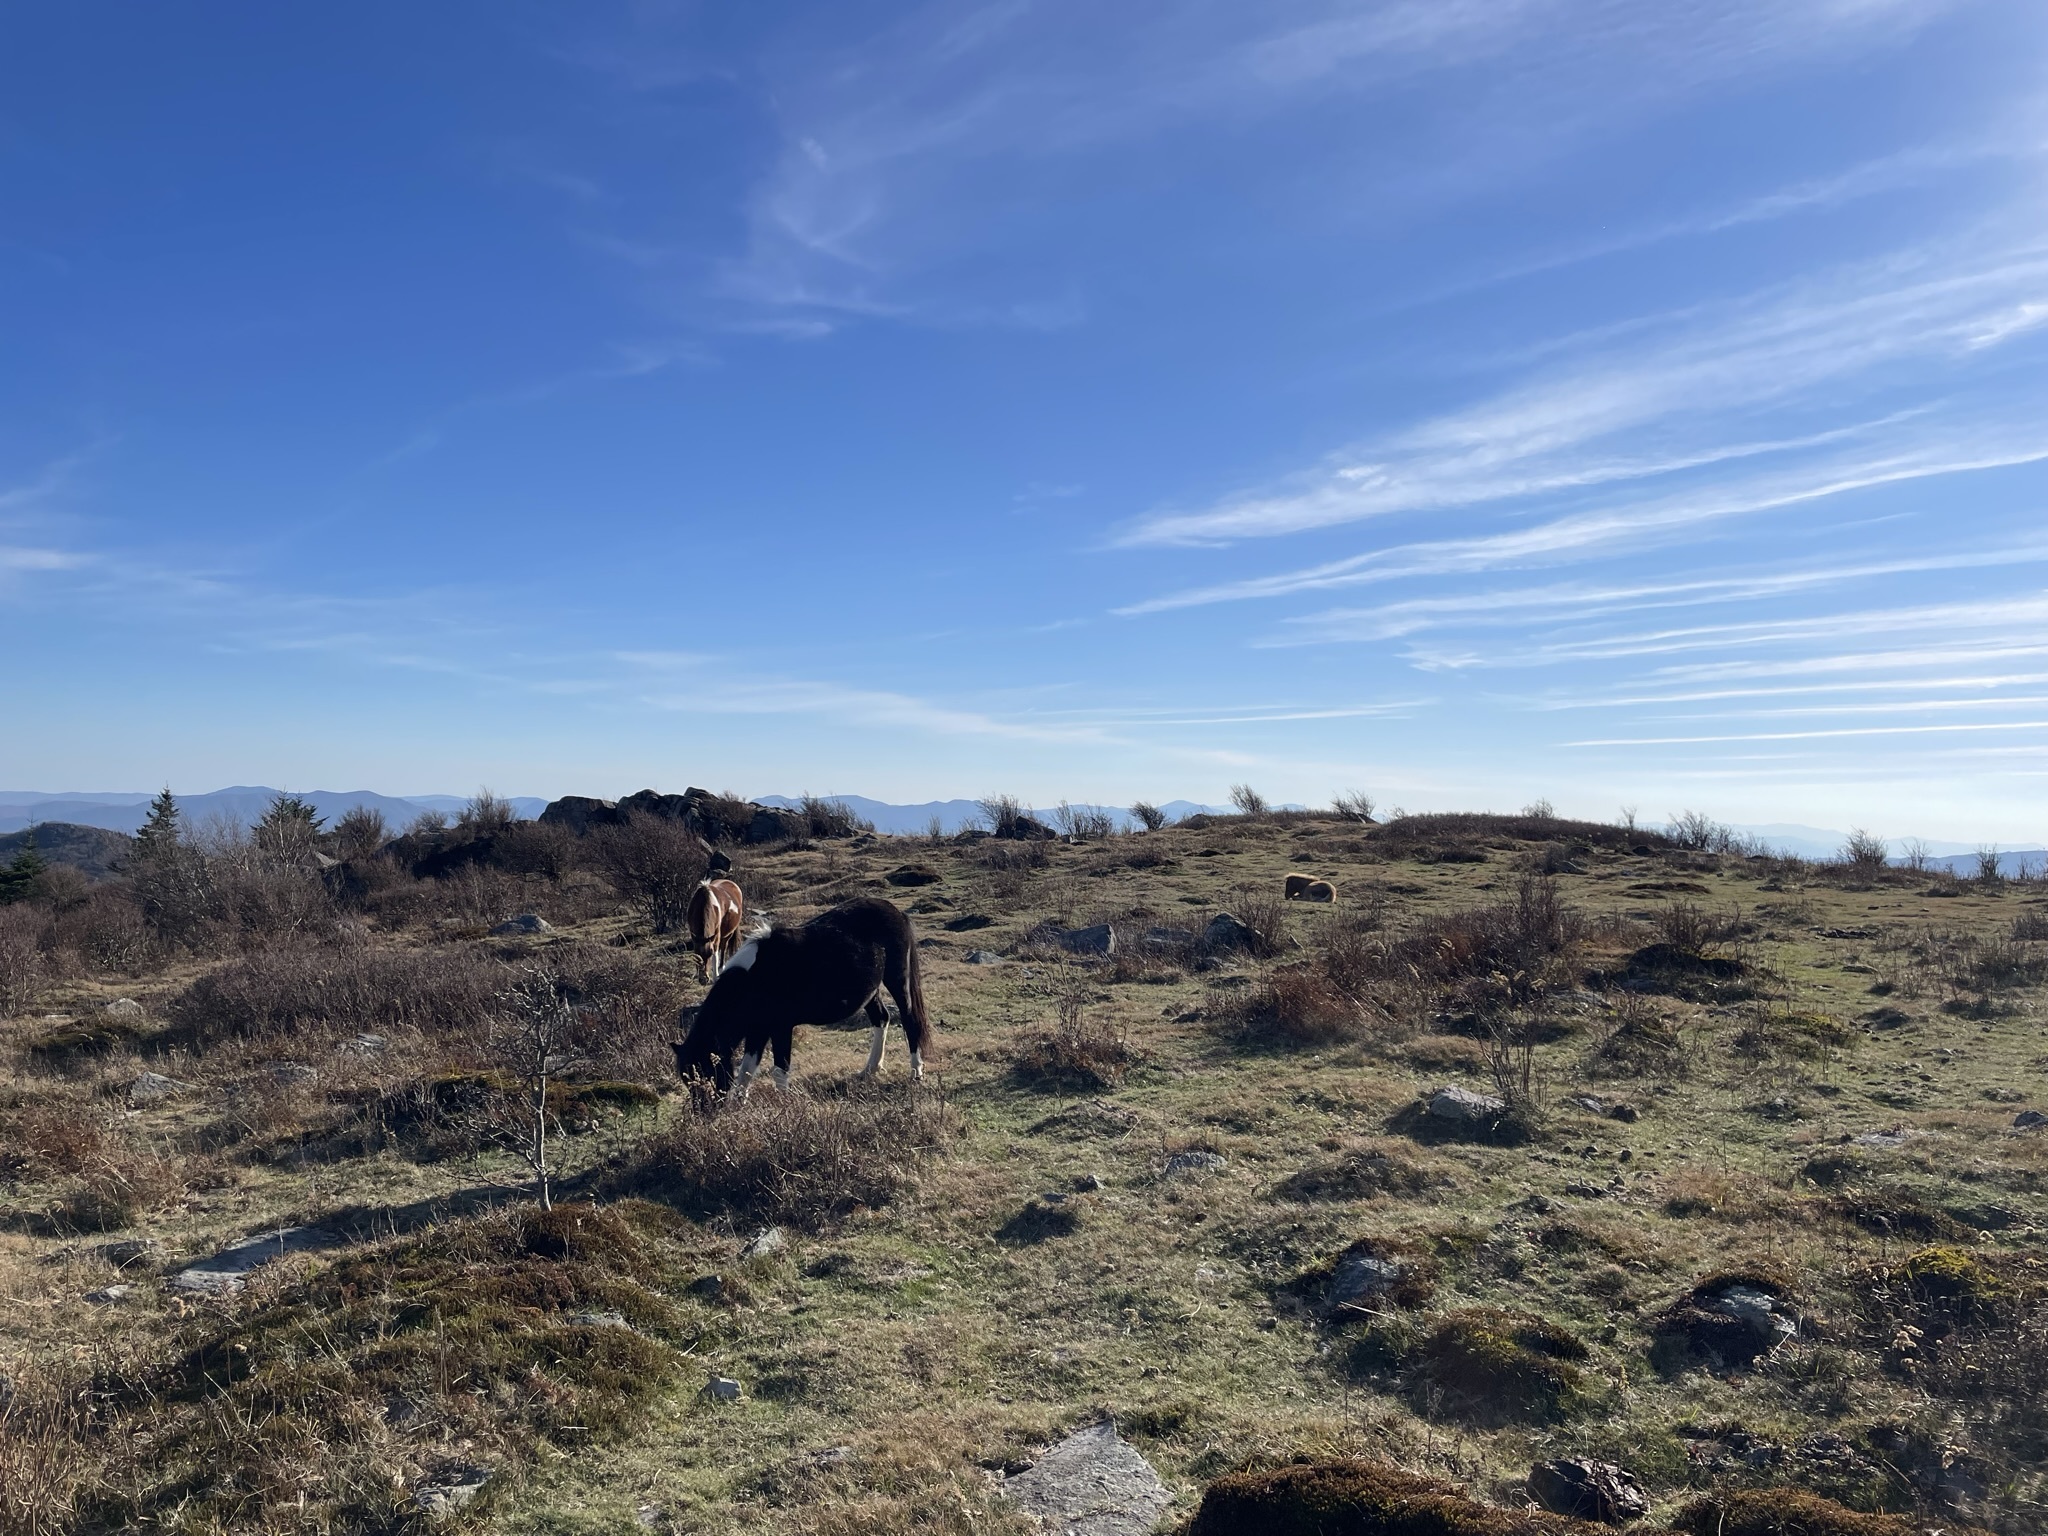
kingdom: Animalia
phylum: Chordata
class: Mammalia
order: Perissodactyla
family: Equidae
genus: Equus
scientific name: Equus caballus
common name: Horse
